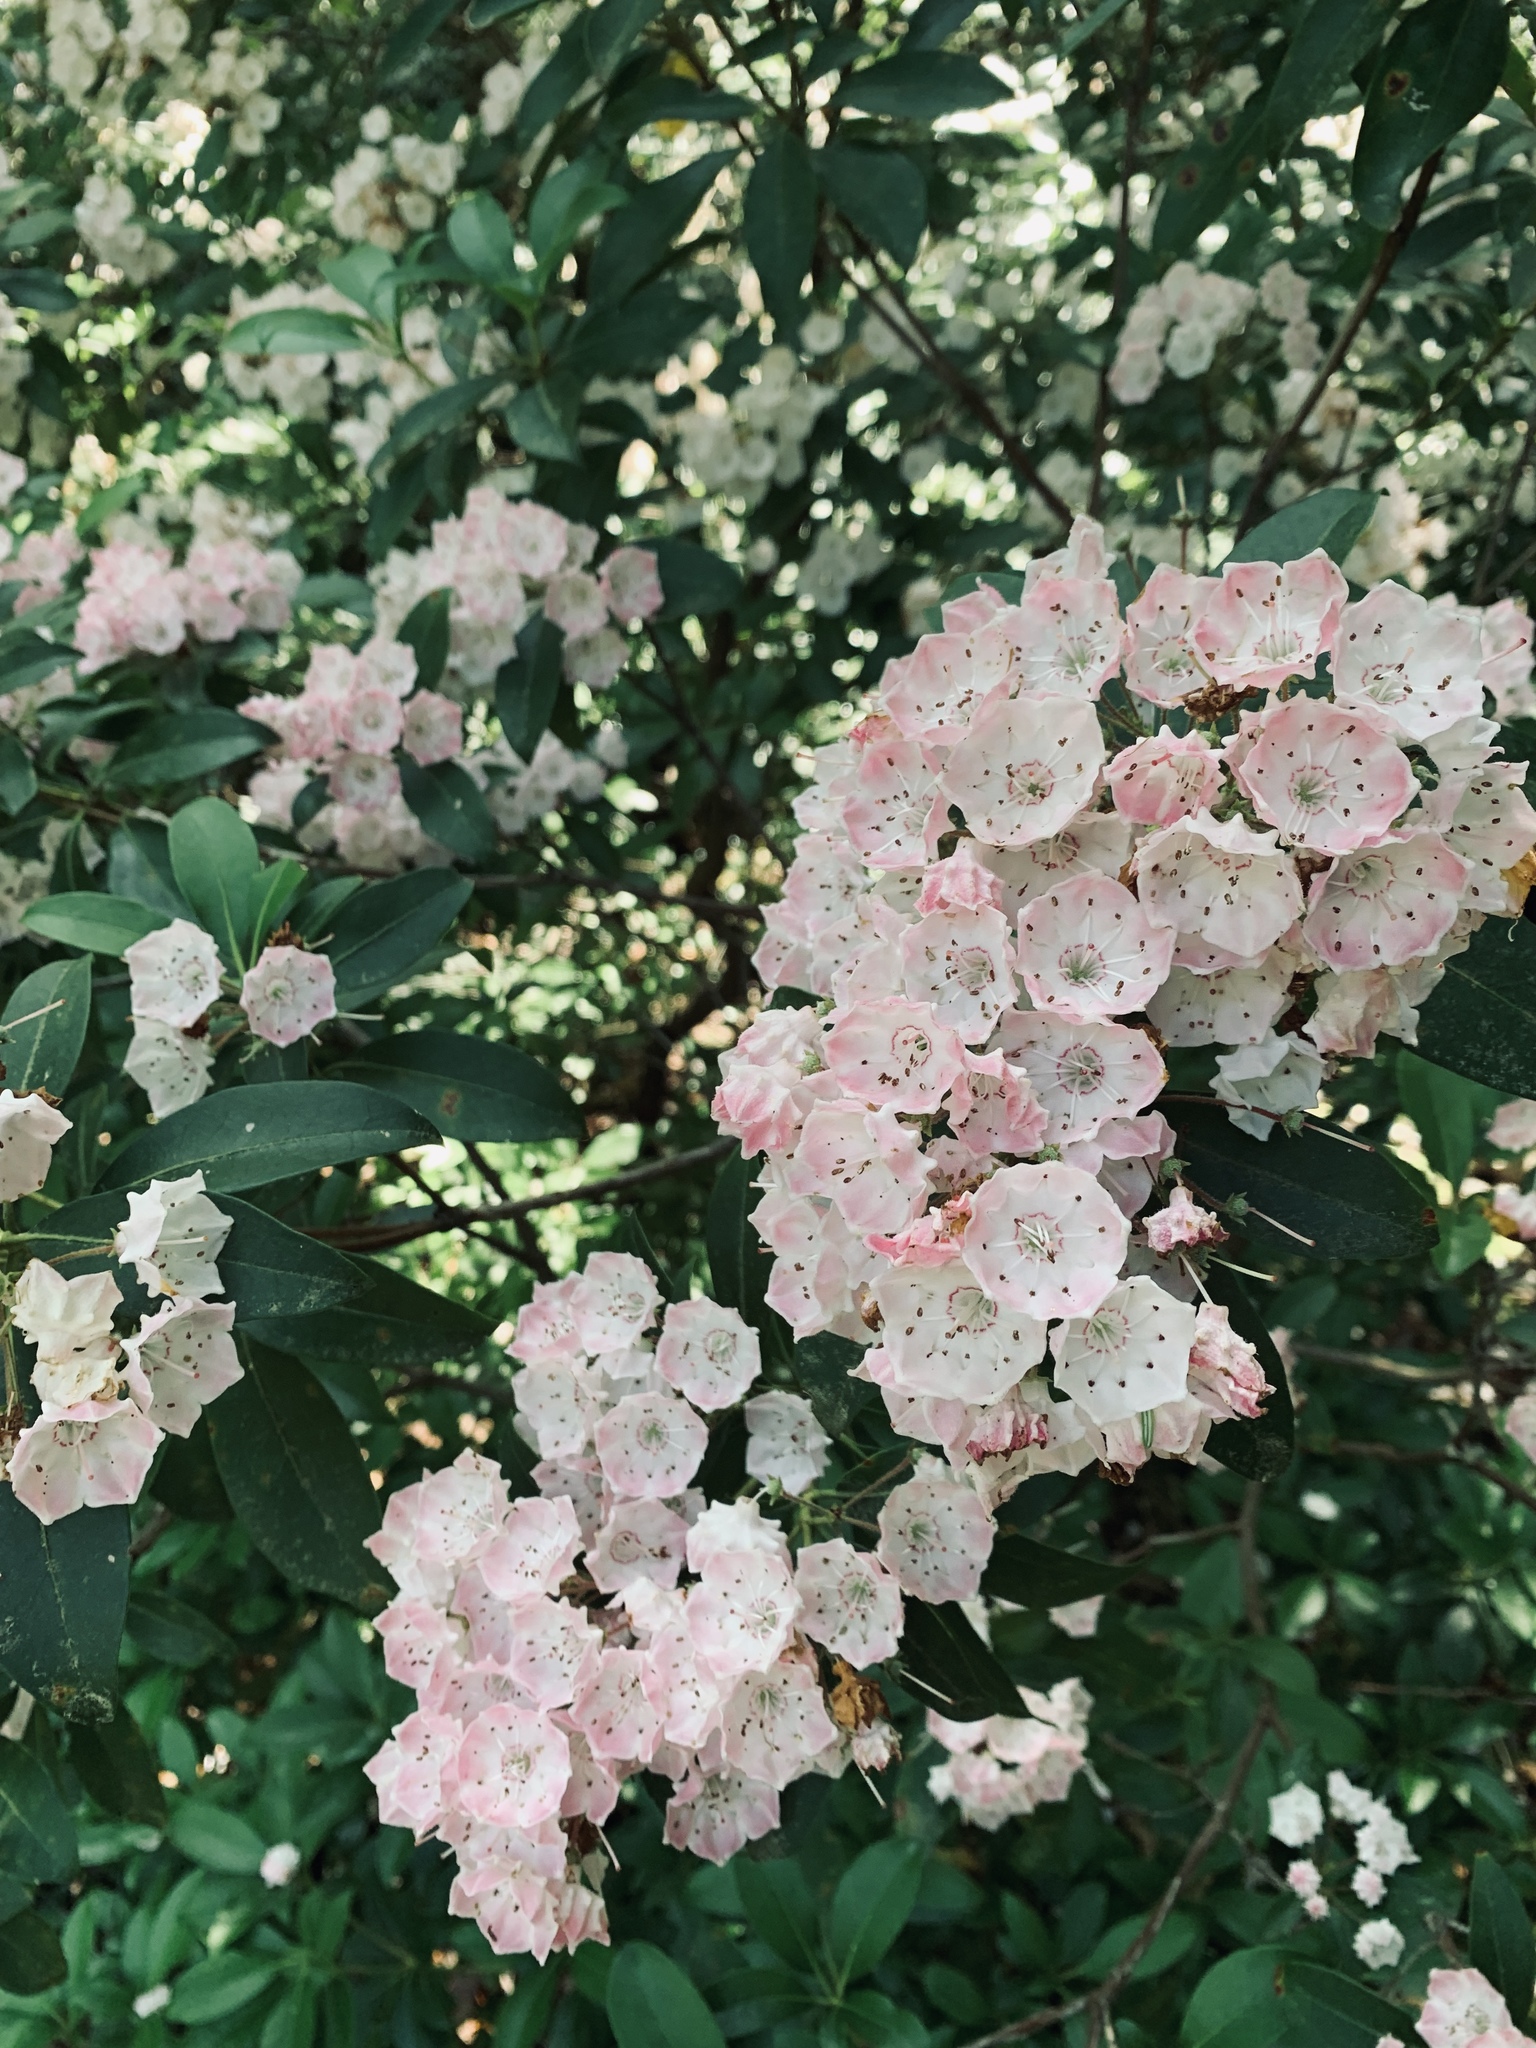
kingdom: Plantae
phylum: Tracheophyta
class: Magnoliopsida
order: Ericales
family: Ericaceae
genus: Kalmia
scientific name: Kalmia latifolia
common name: Mountain-laurel
